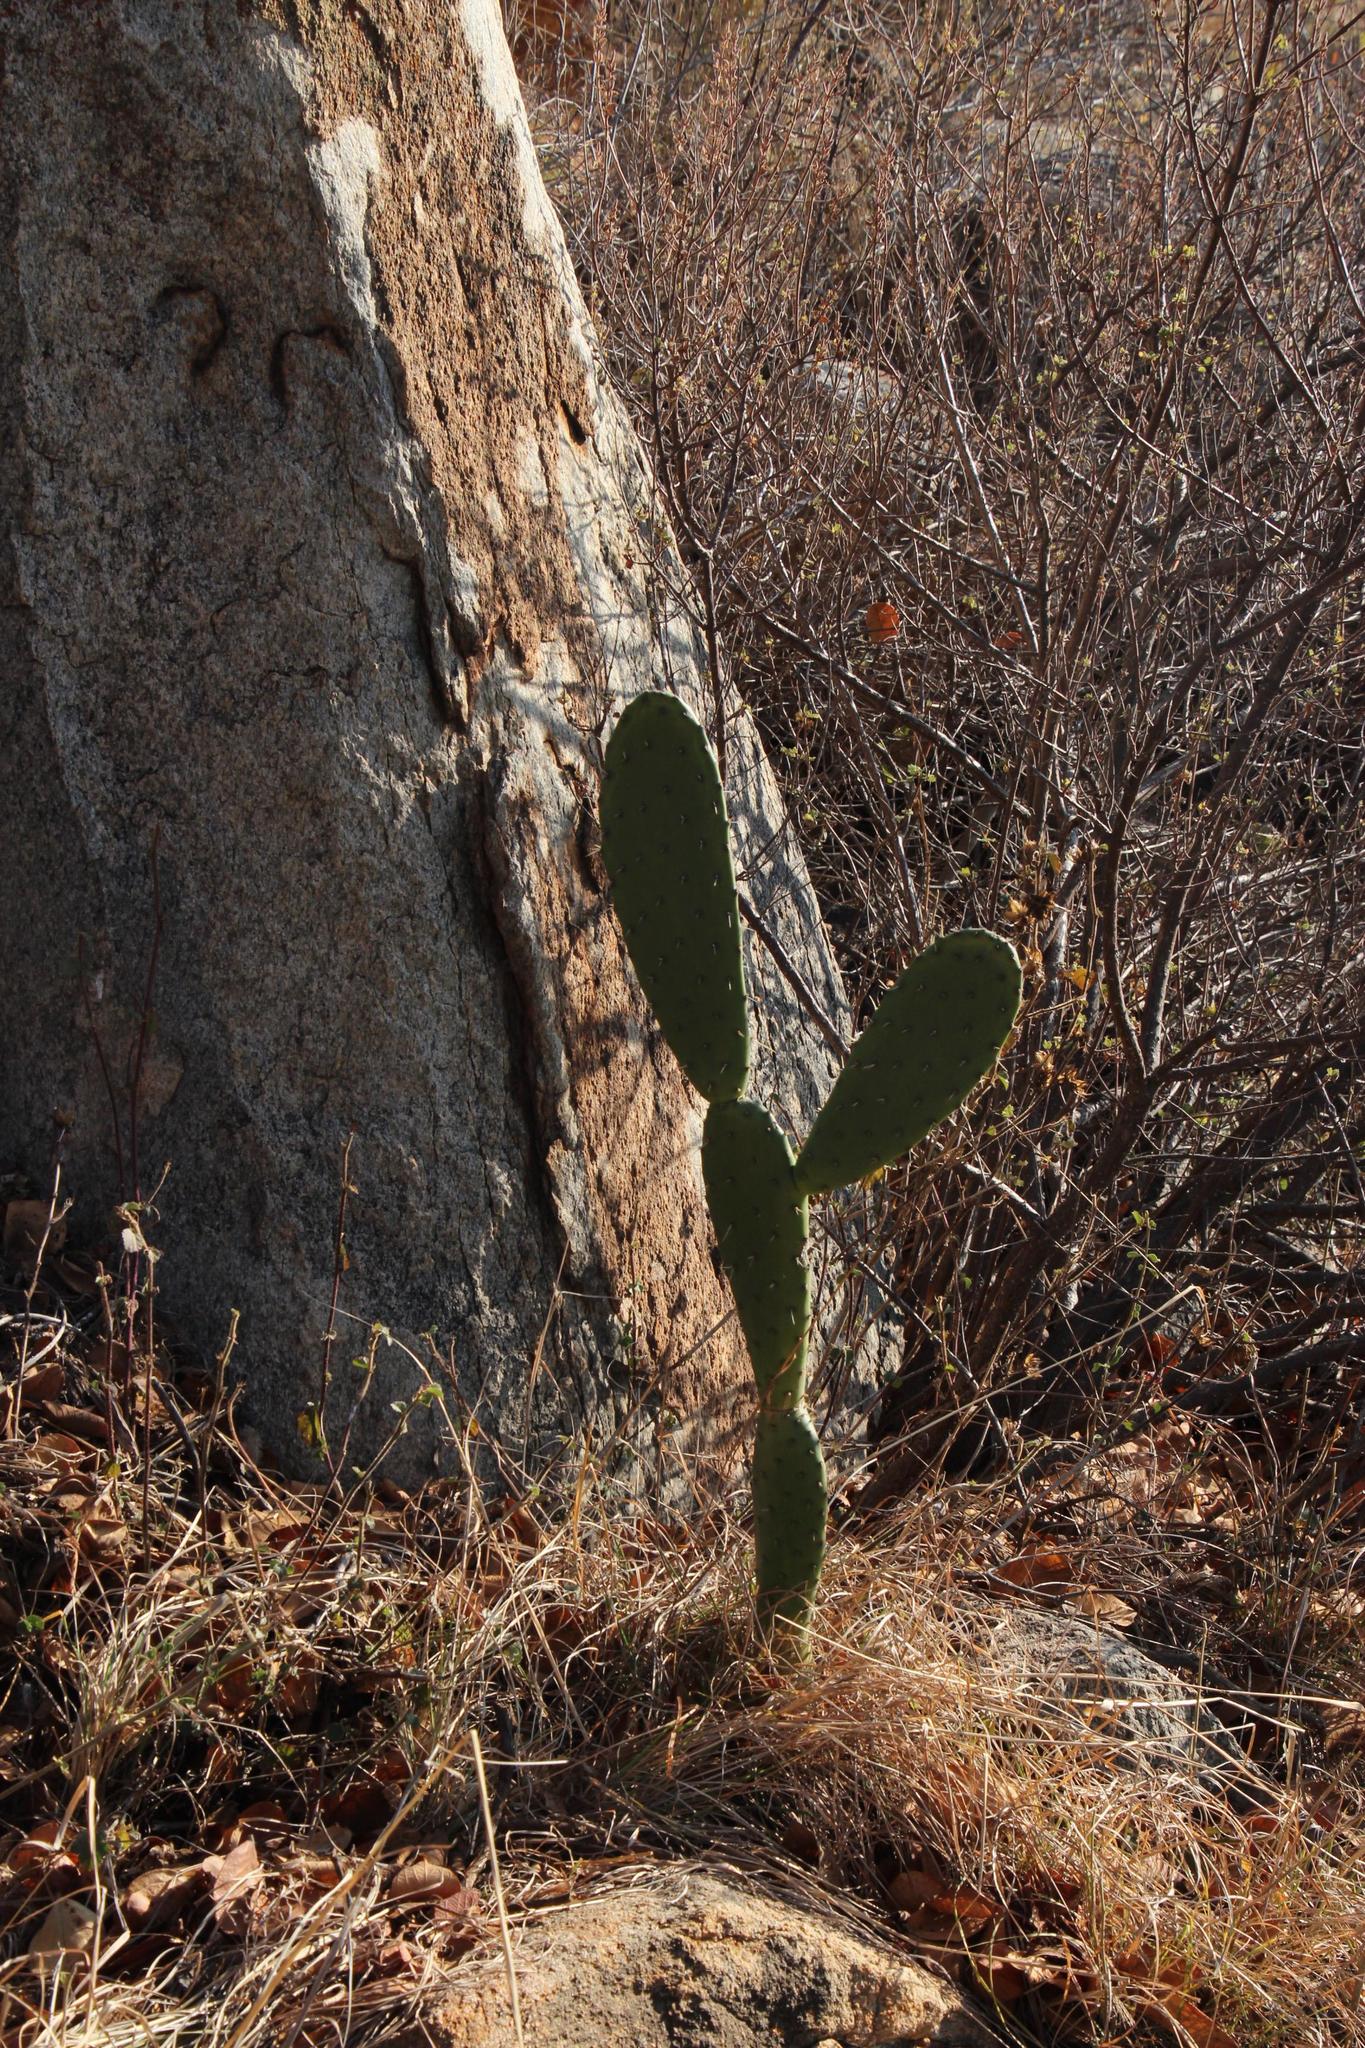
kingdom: Plantae
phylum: Tracheophyta
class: Magnoliopsida
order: Caryophyllales
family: Cactaceae
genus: Opuntia
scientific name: Opuntia ficus-indica
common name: Barbary fig
